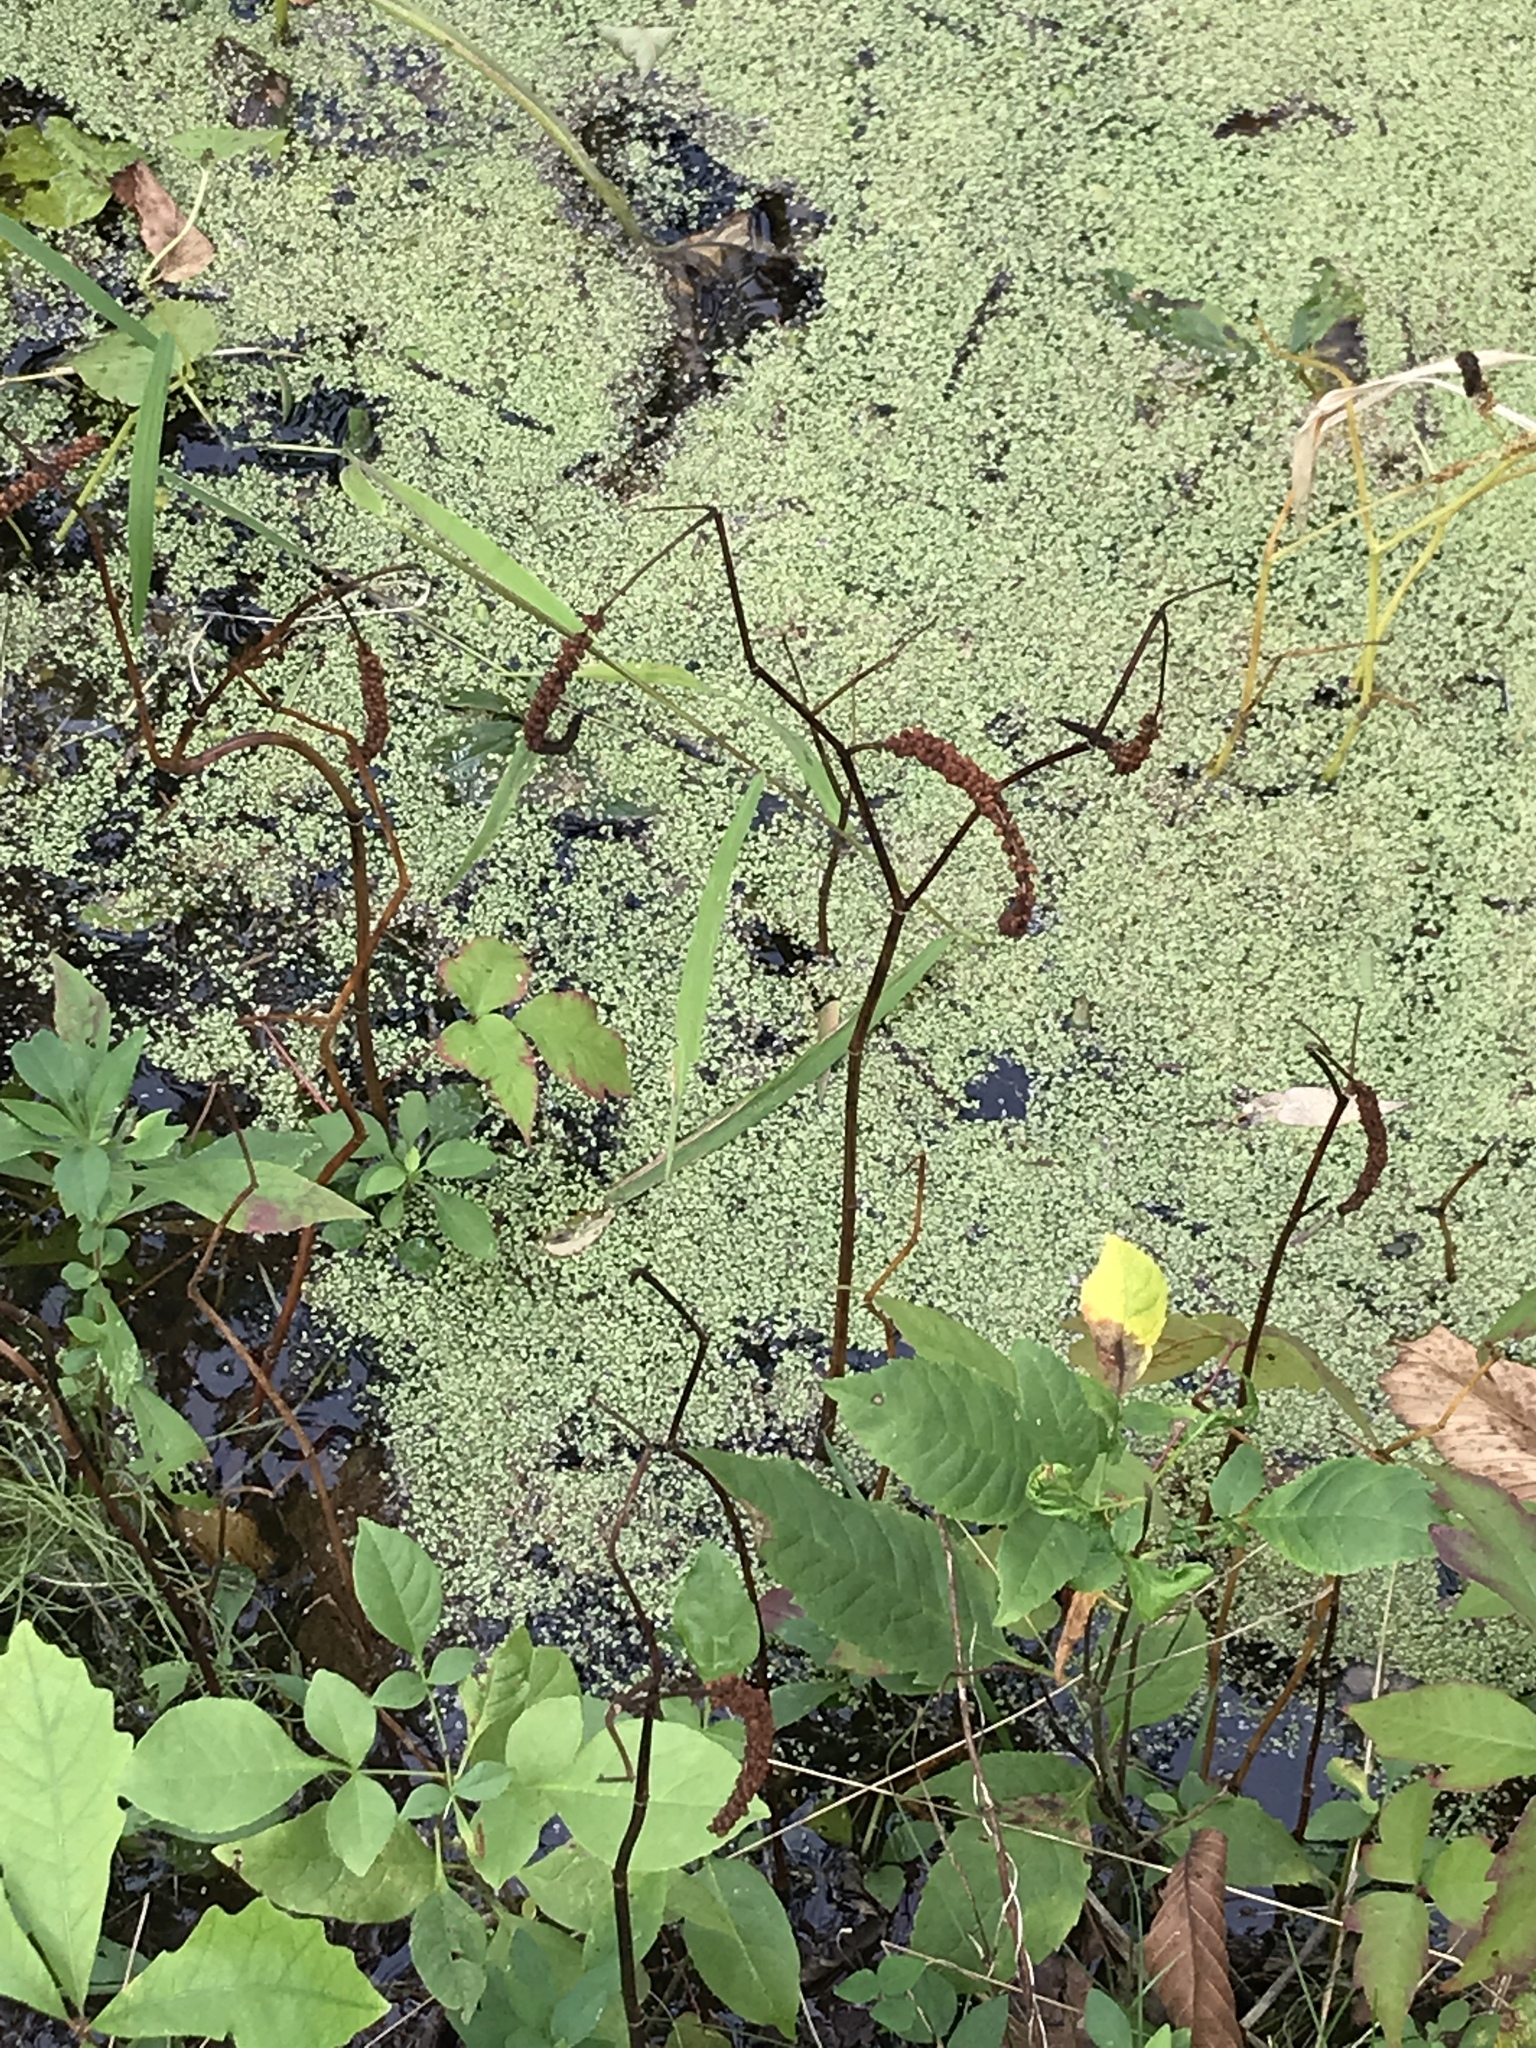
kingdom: Plantae
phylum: Tracheophyta
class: Magnoliopsida
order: Piperales
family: Saururaceae
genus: Saururus
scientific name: Saururus cernuus
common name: Lizard's-tail
